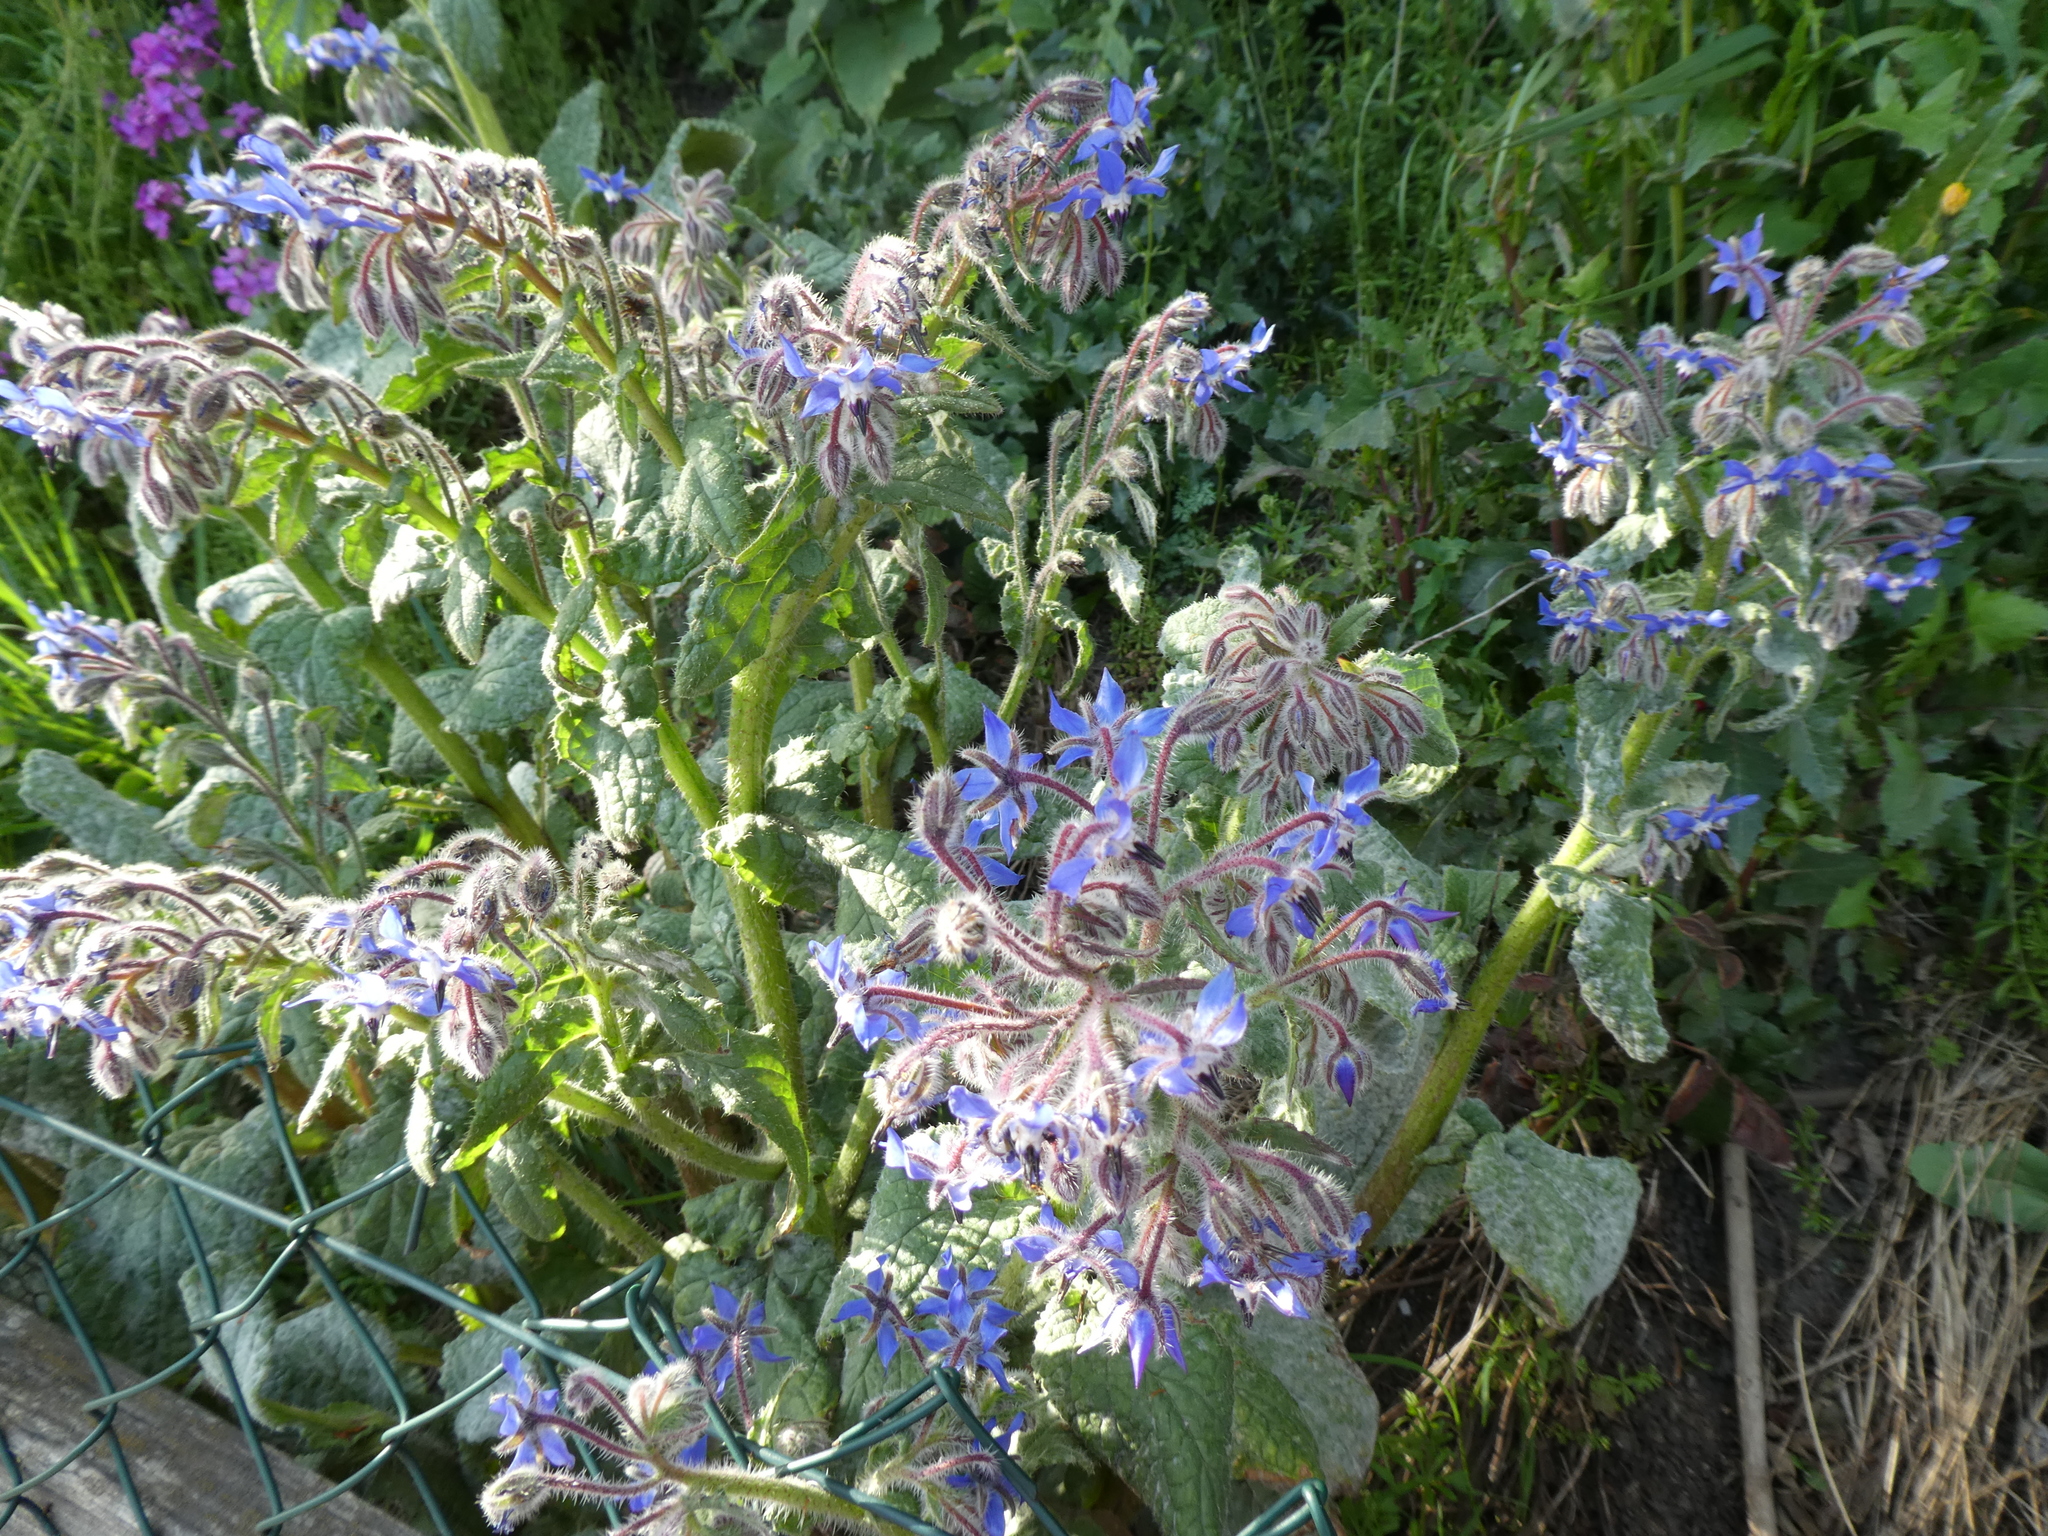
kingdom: Plantae
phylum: Tracheophyta
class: Magnoliopsida
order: Boraginales
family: Boraginaceae
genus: Borago
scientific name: Borago officinalis
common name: Borage
